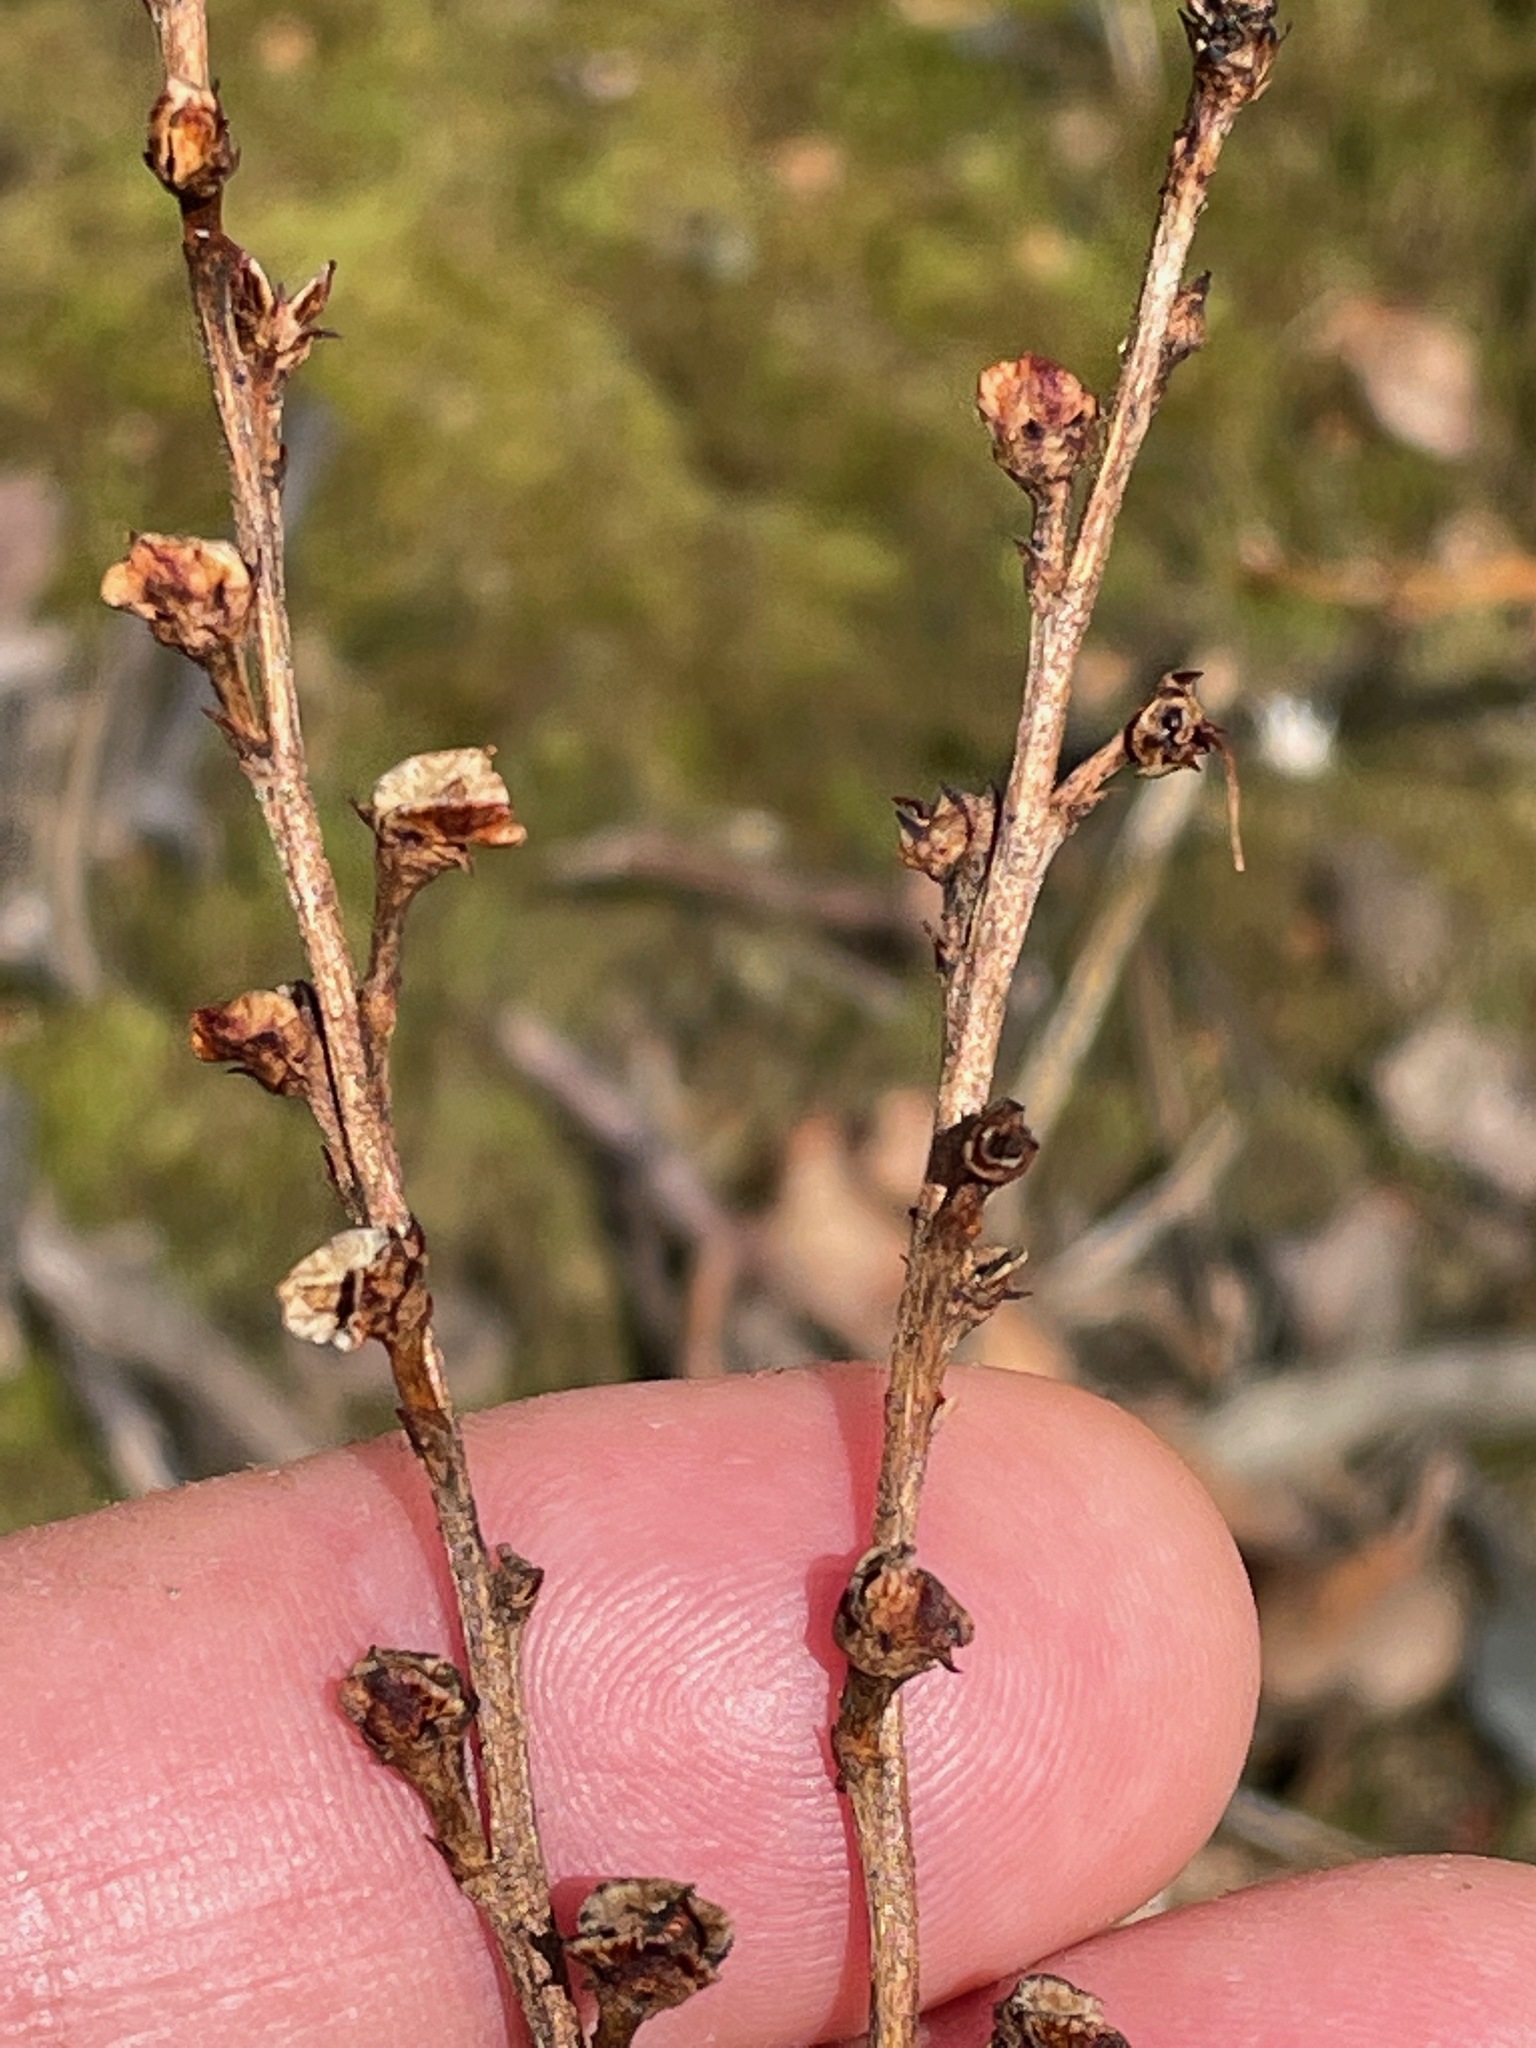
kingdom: Plantae
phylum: Tracheophyta
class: Magnoliopsida
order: Lamiales
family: Orobanchaceae
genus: Epifagus
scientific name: Epifagus virginiana
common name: Beechdrops
